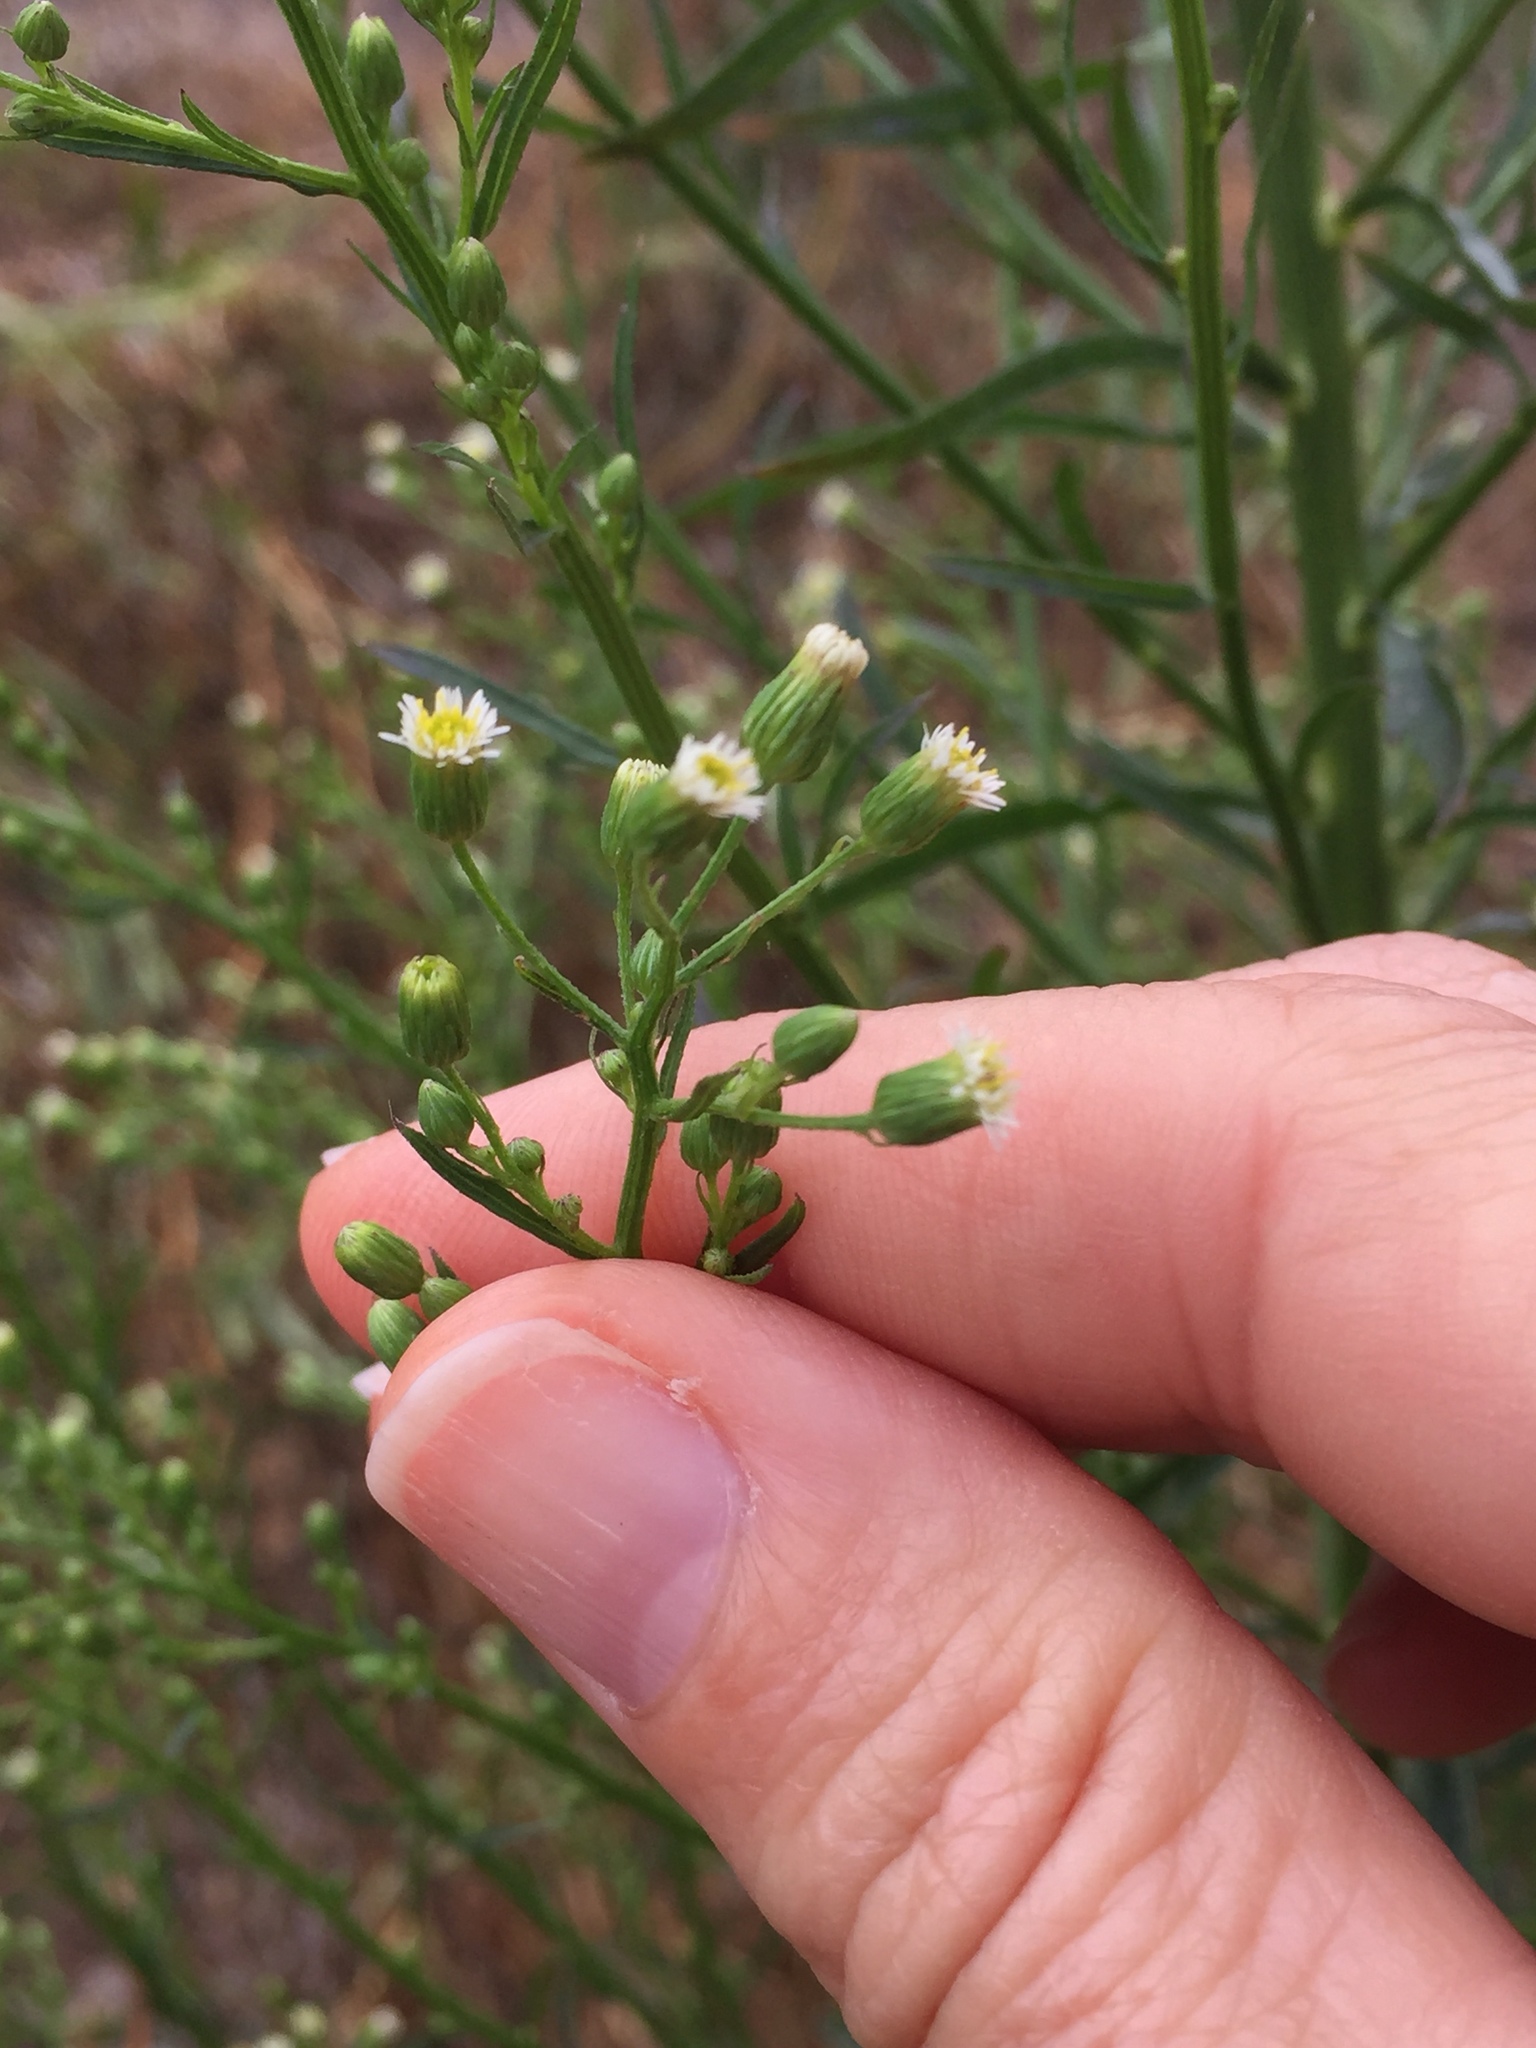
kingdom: Plantae
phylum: Tracheophyta
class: Magnoliopsida
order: Asterales
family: Asteraceae
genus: Erigeron
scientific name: Erigeron canadensis
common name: Canadian fleabane
